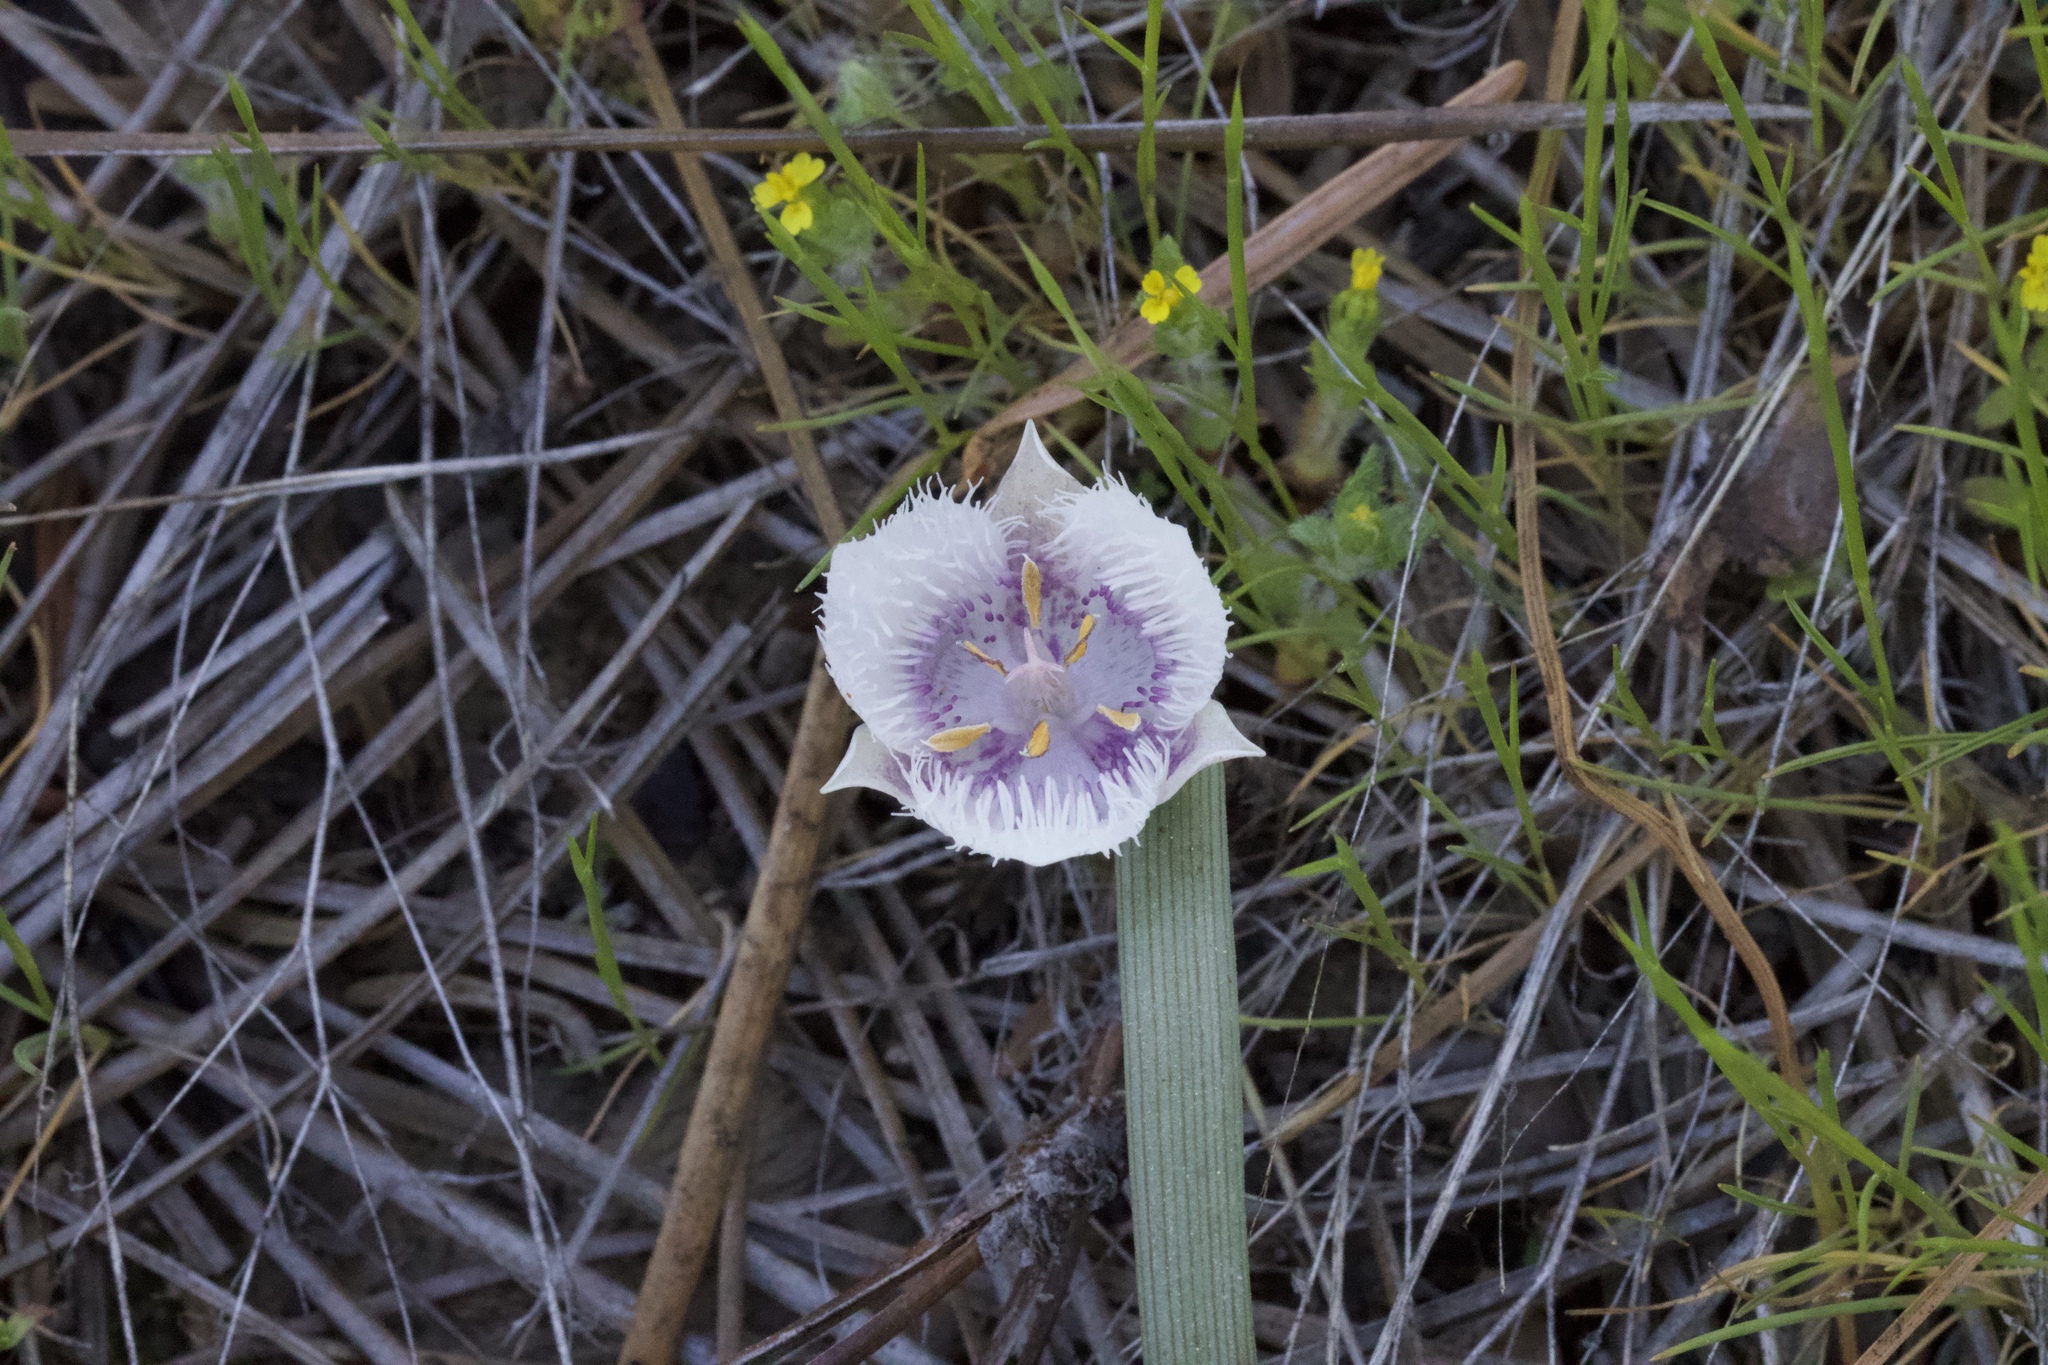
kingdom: Plantae
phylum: Tracheophyta
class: Liliopsida
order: Liliales
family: Liliaceae
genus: Calochortus
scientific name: Calochortus coeruleus
